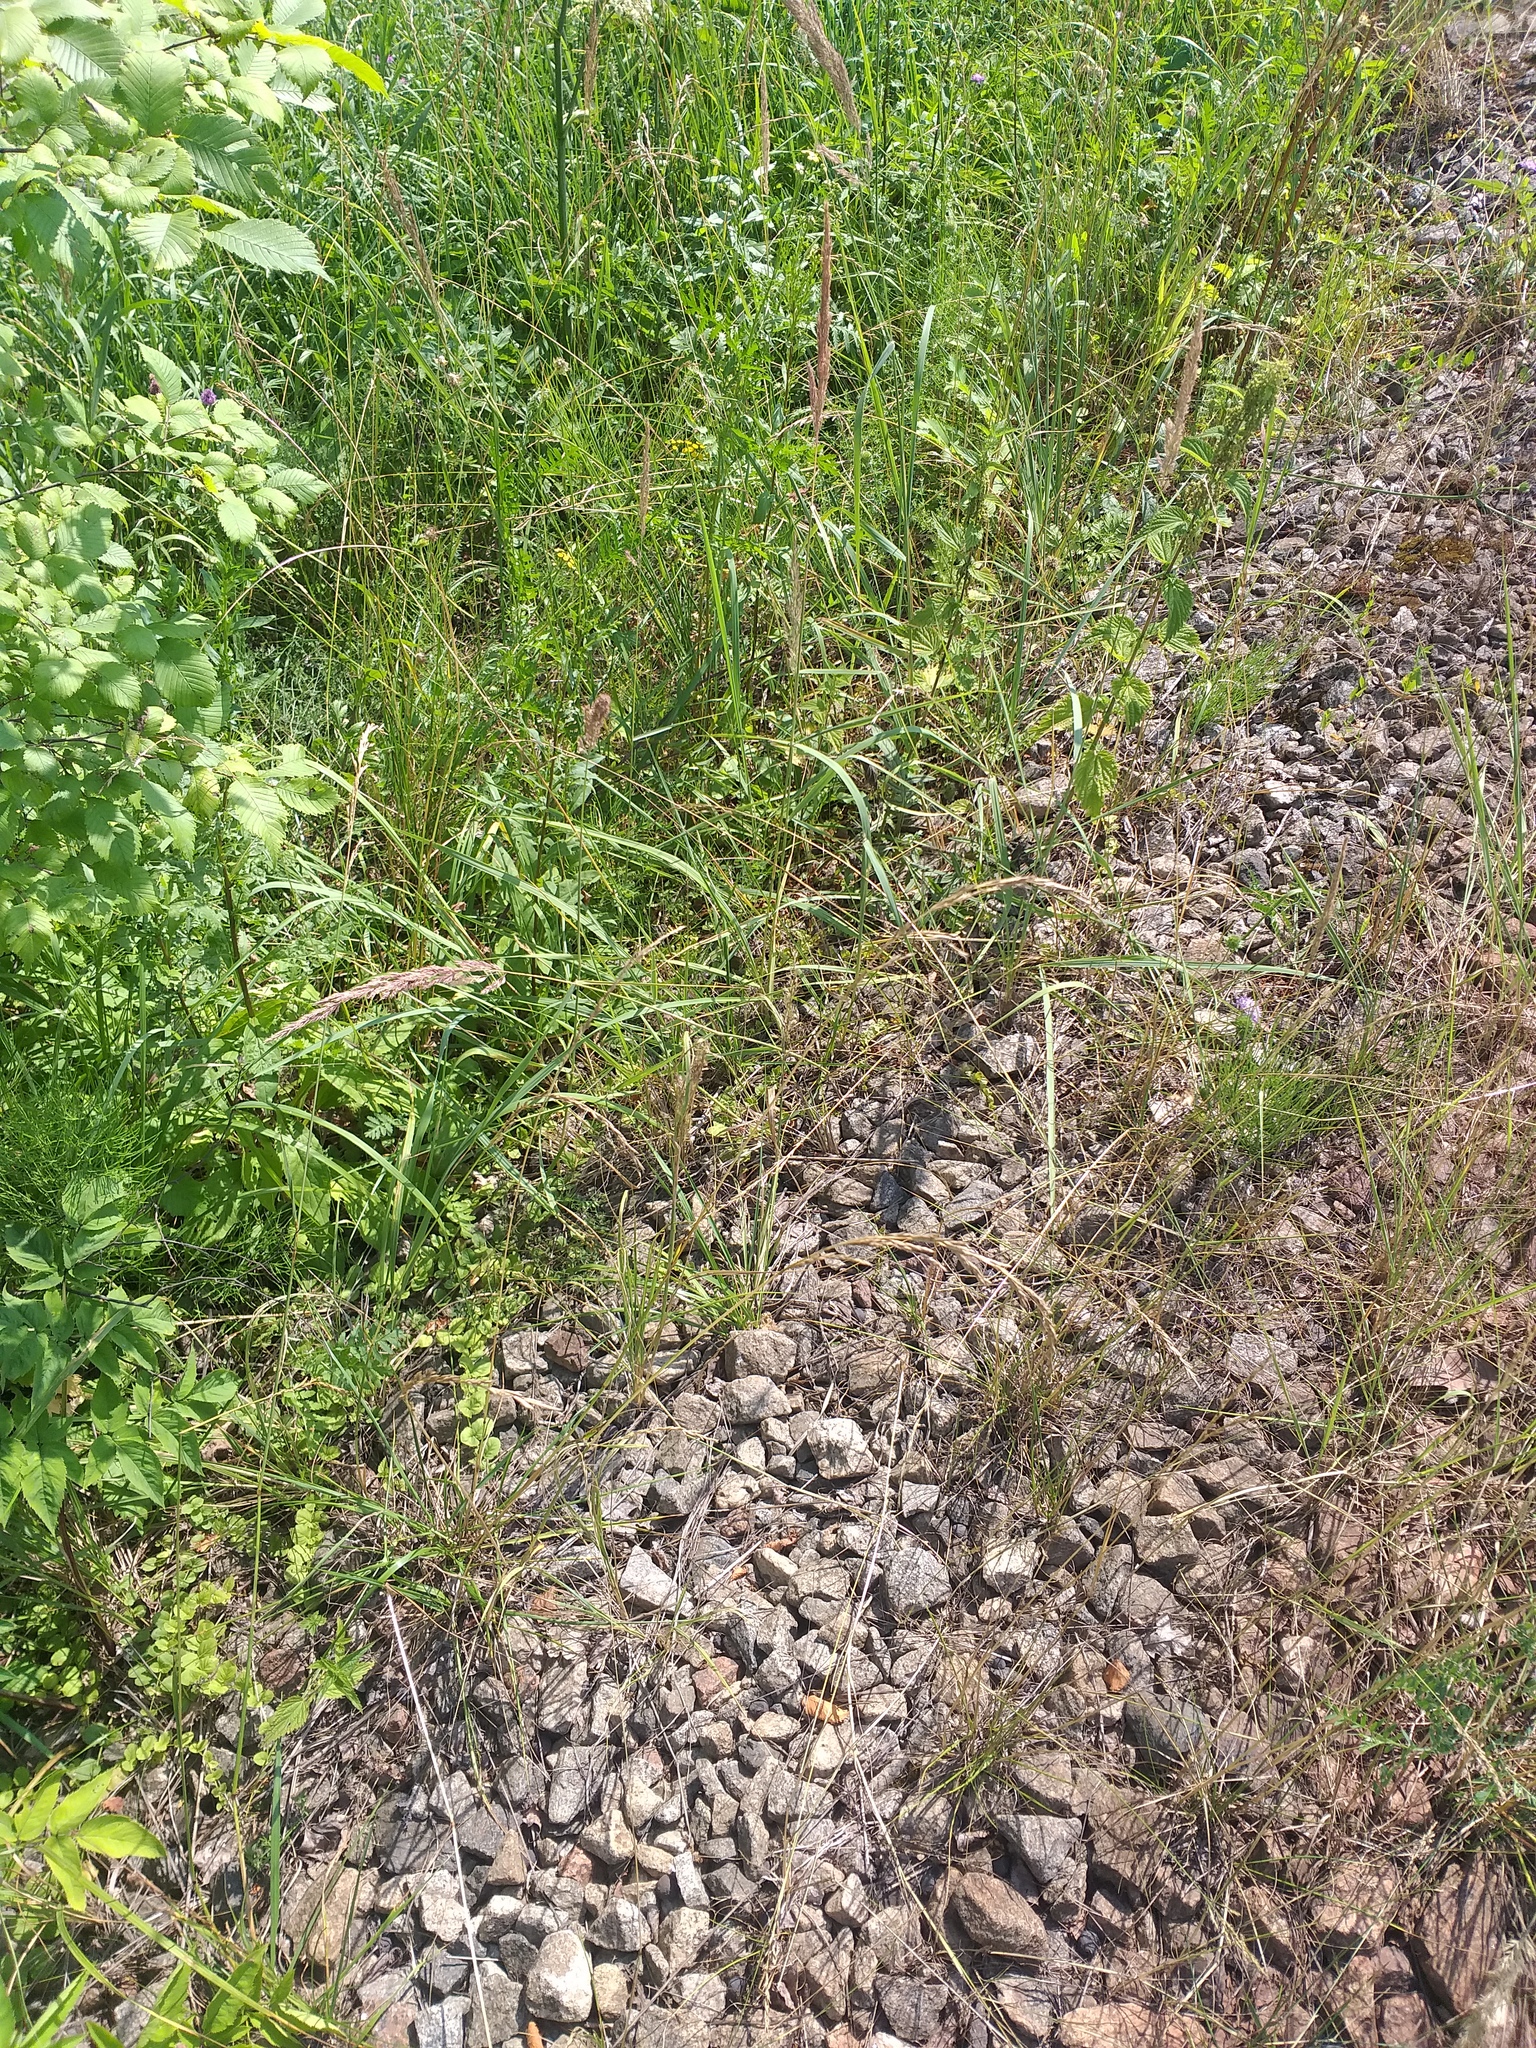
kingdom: Plantae
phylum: Tracheophyta
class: Liliopsida
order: Poales
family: Poaceae
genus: Lolium
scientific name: Lolium pratense
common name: Dover grass
